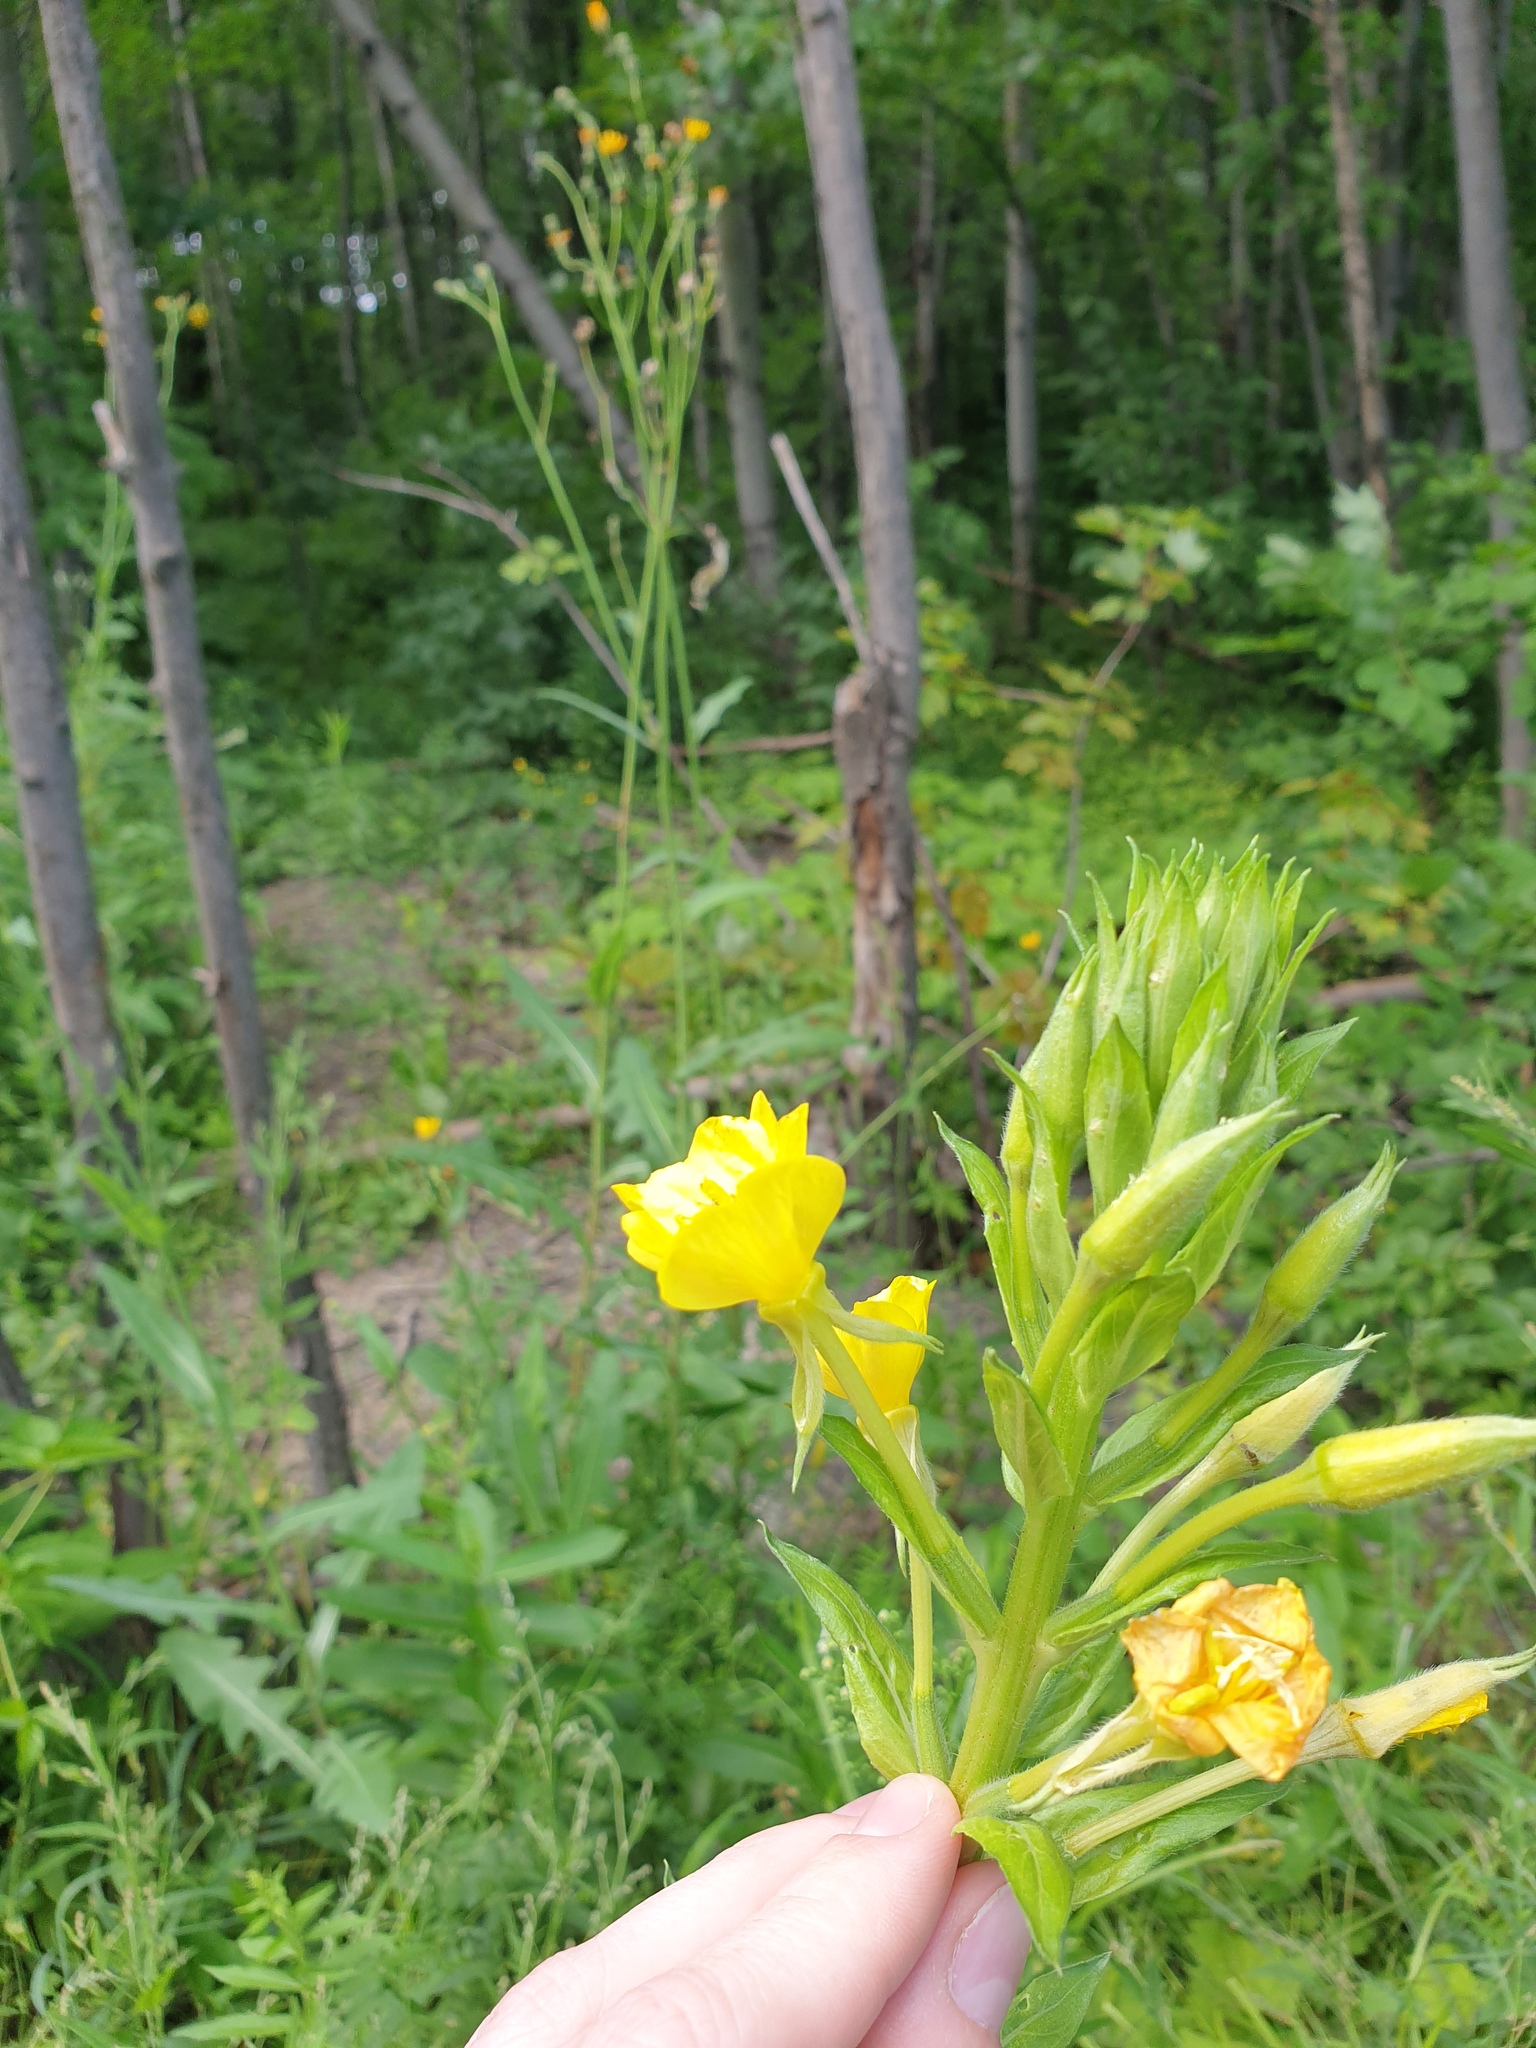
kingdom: Plantae
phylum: Tracheophyta
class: Magnoliopsida
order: Myrtales
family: Onagraceae
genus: Oenothera
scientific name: Oenothera biennis
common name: Common evening-primrose
